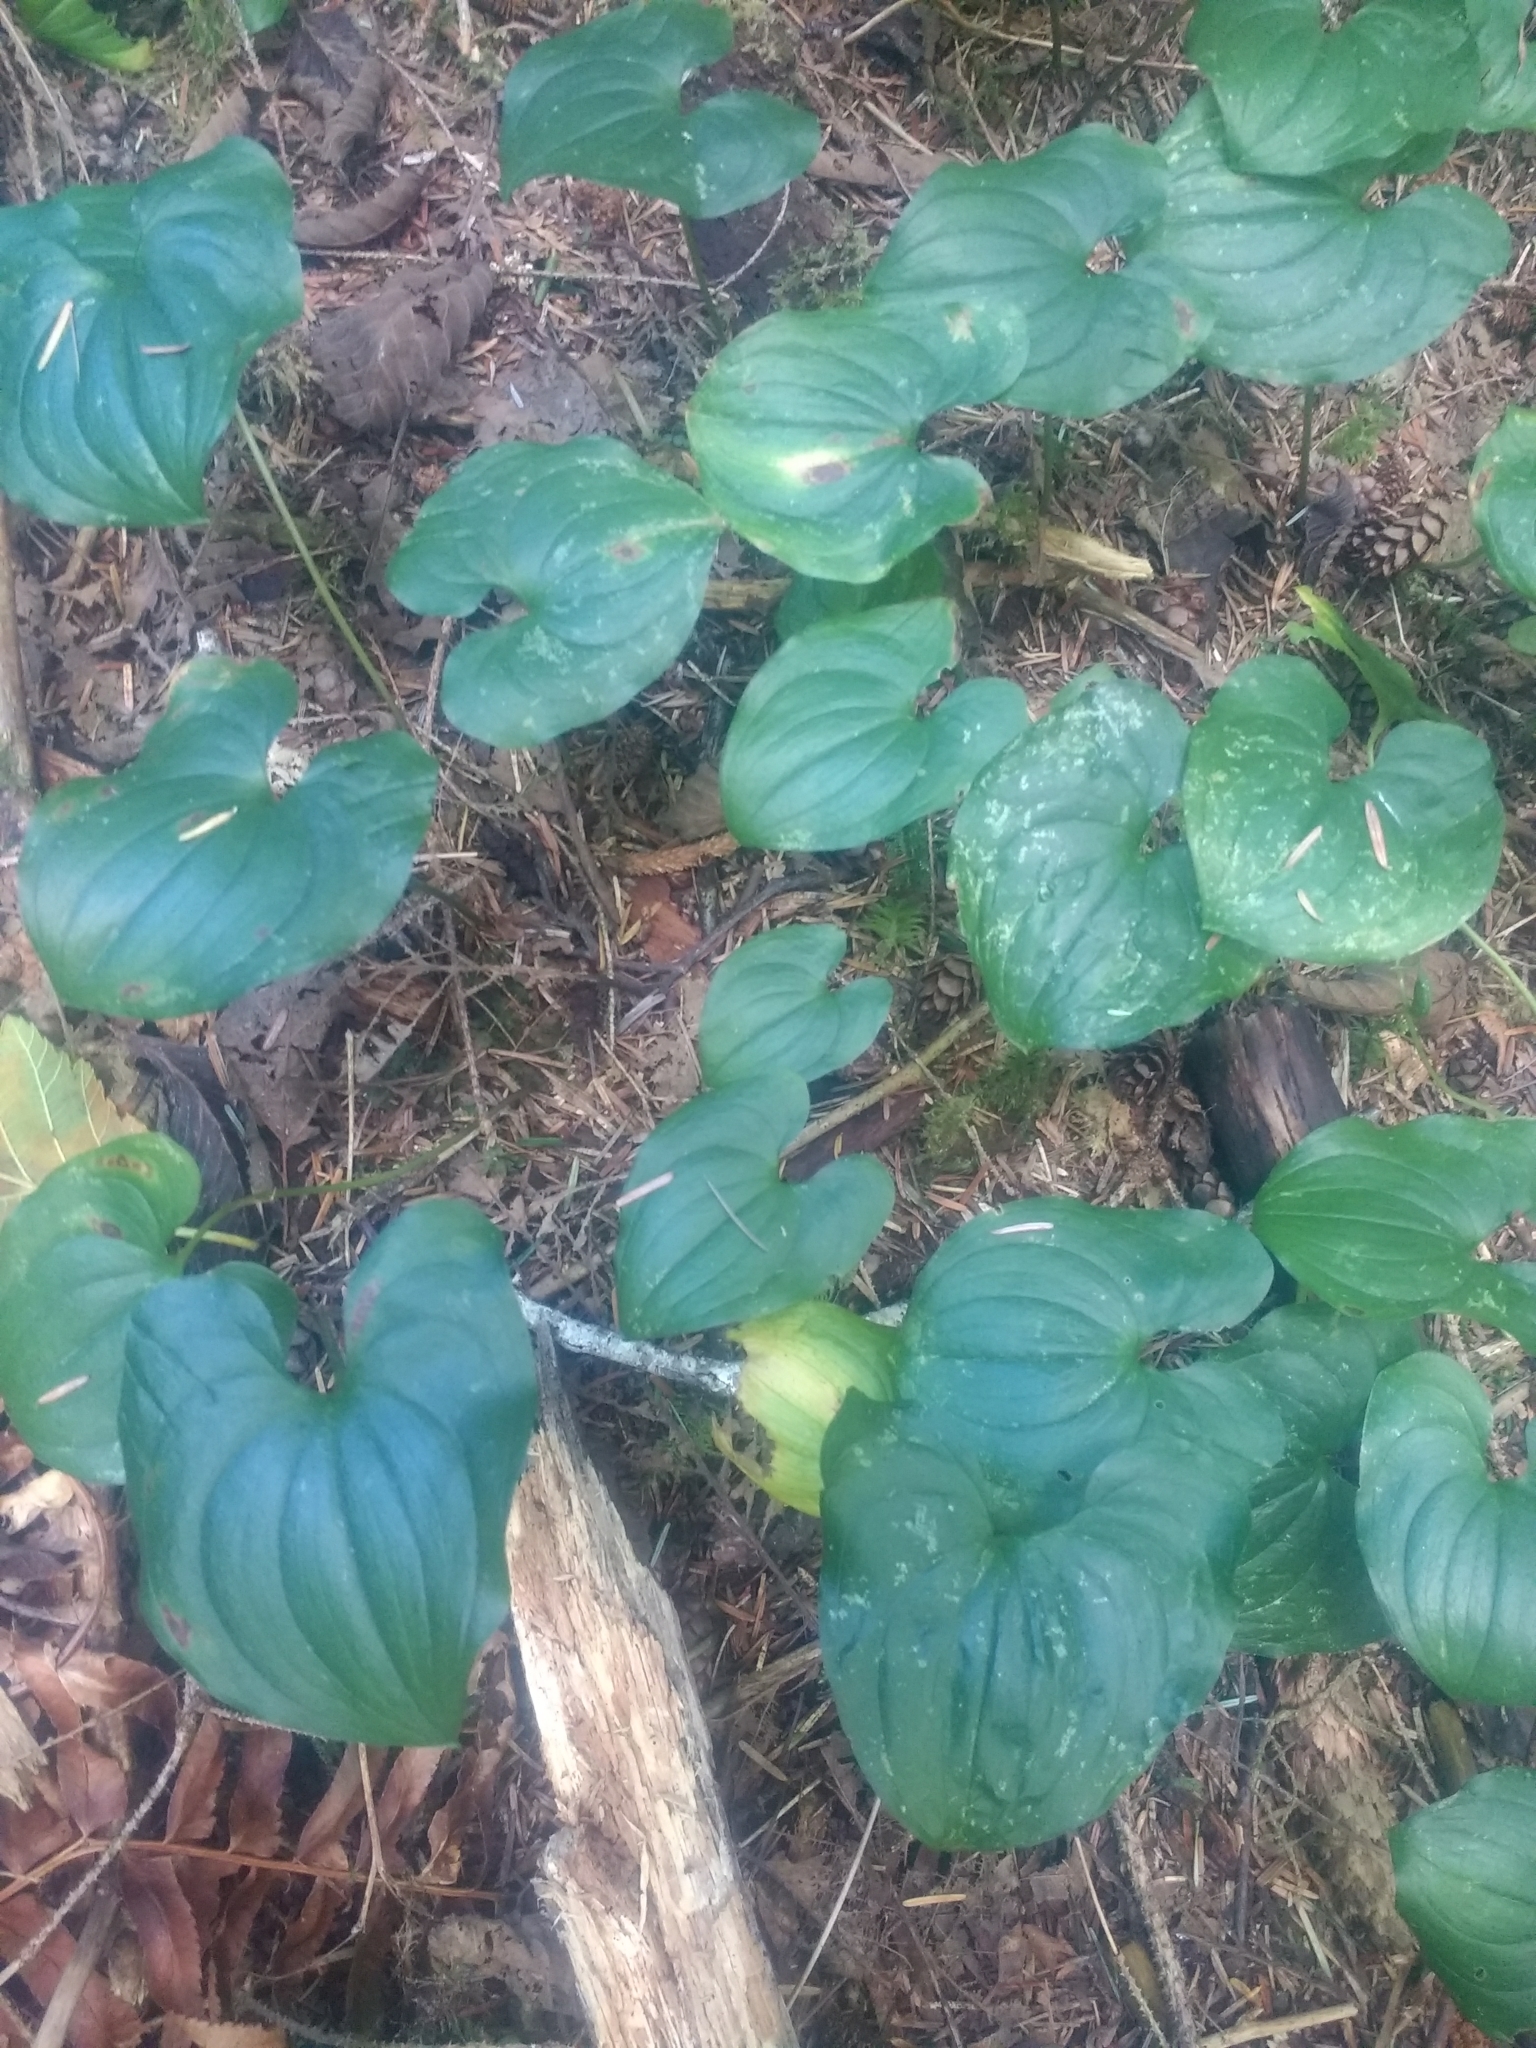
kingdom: Plantae
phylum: Tracheophyta
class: Liliopsida
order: Asparagales
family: Asparagaceae
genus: Maianthemum
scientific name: Maianthemum dilatatum
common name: False lily-of-the-valley
